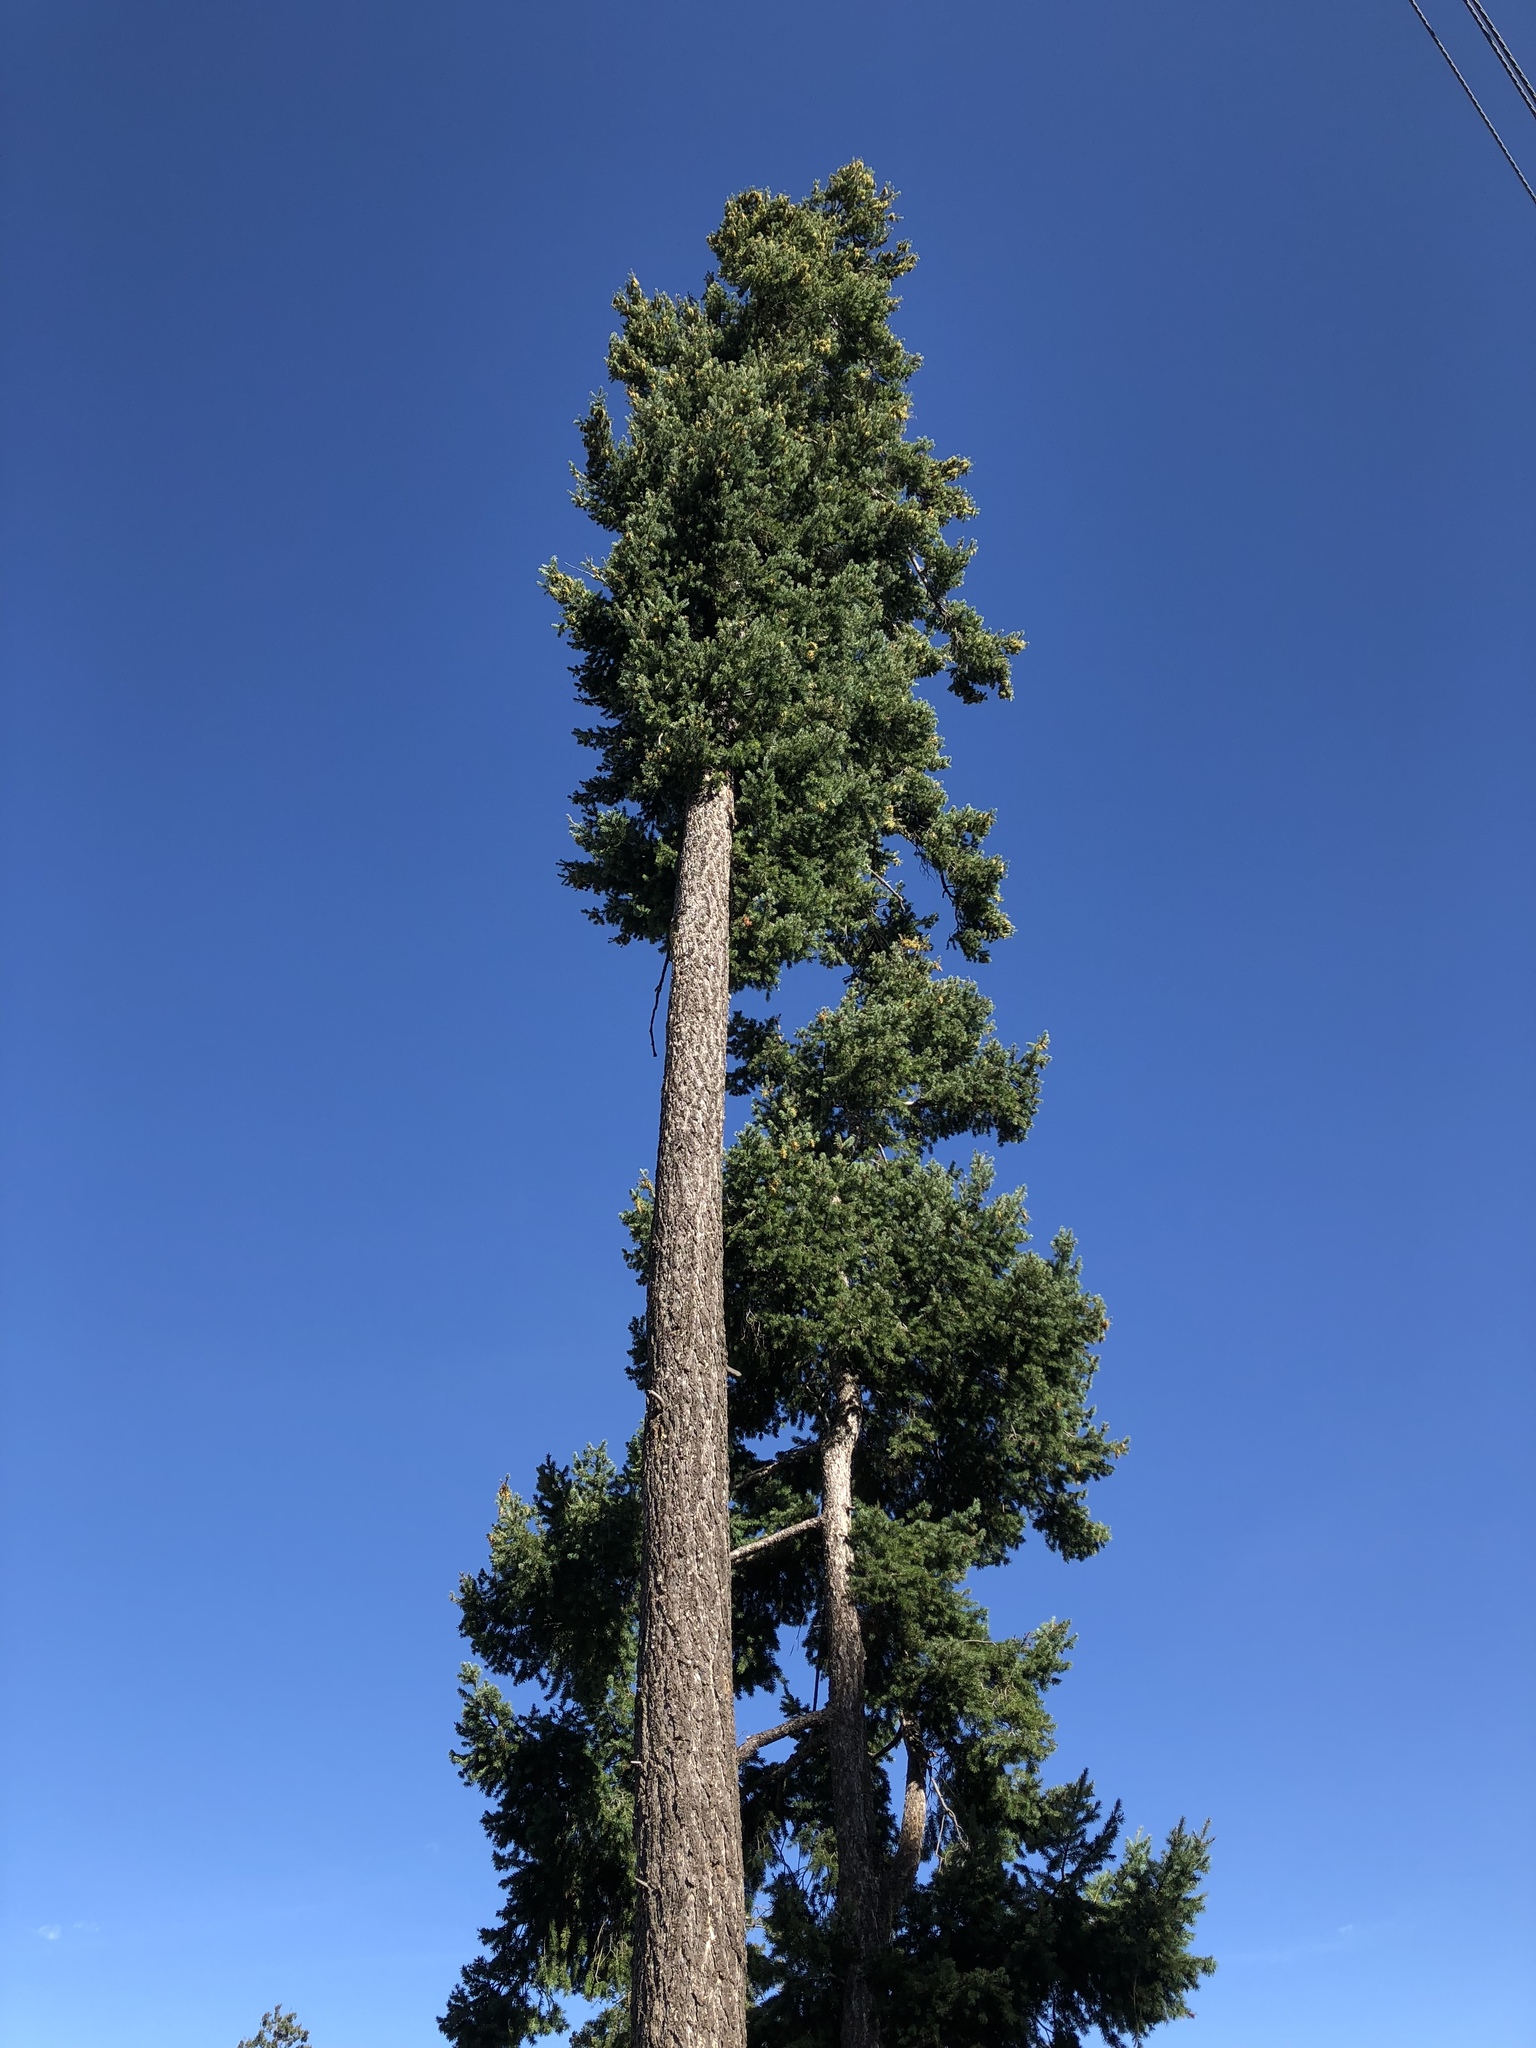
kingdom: Plantae
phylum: Tracheophyta
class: Pinopsida
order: Pinales
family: Pinaceae
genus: Pinus
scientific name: Pinus ponderosa
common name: Western yellow-pine
